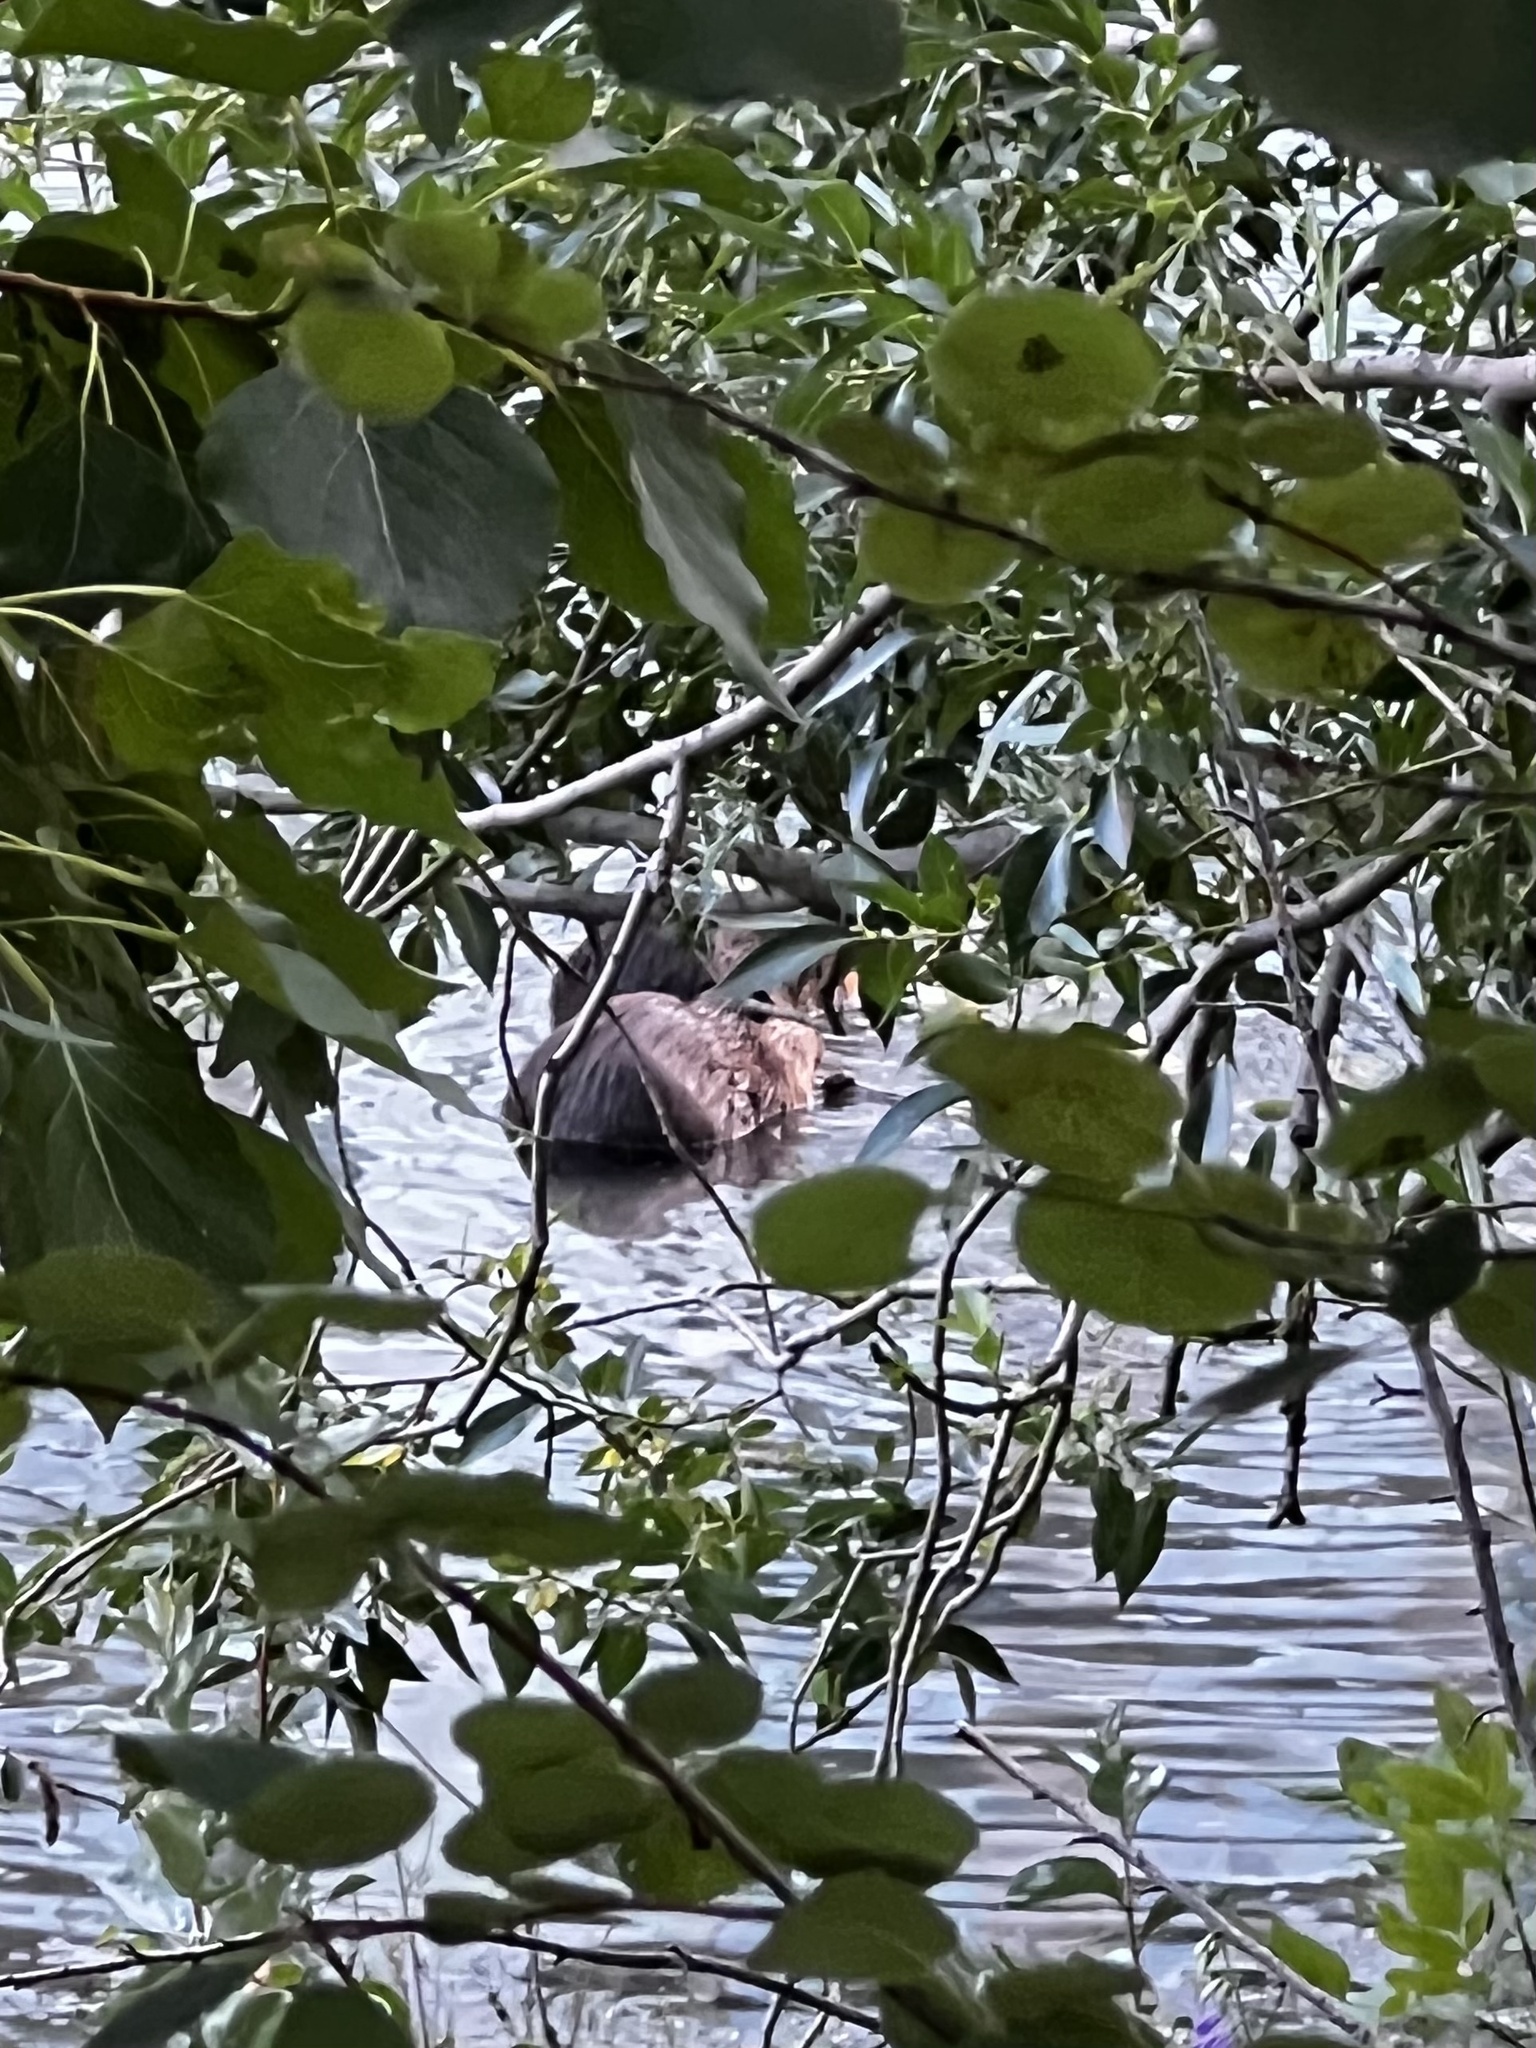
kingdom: Animalia
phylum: Chordata
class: Mammalia
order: Rodentia
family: Castoridae
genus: Castor
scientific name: Castor canadensis
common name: American beaver
